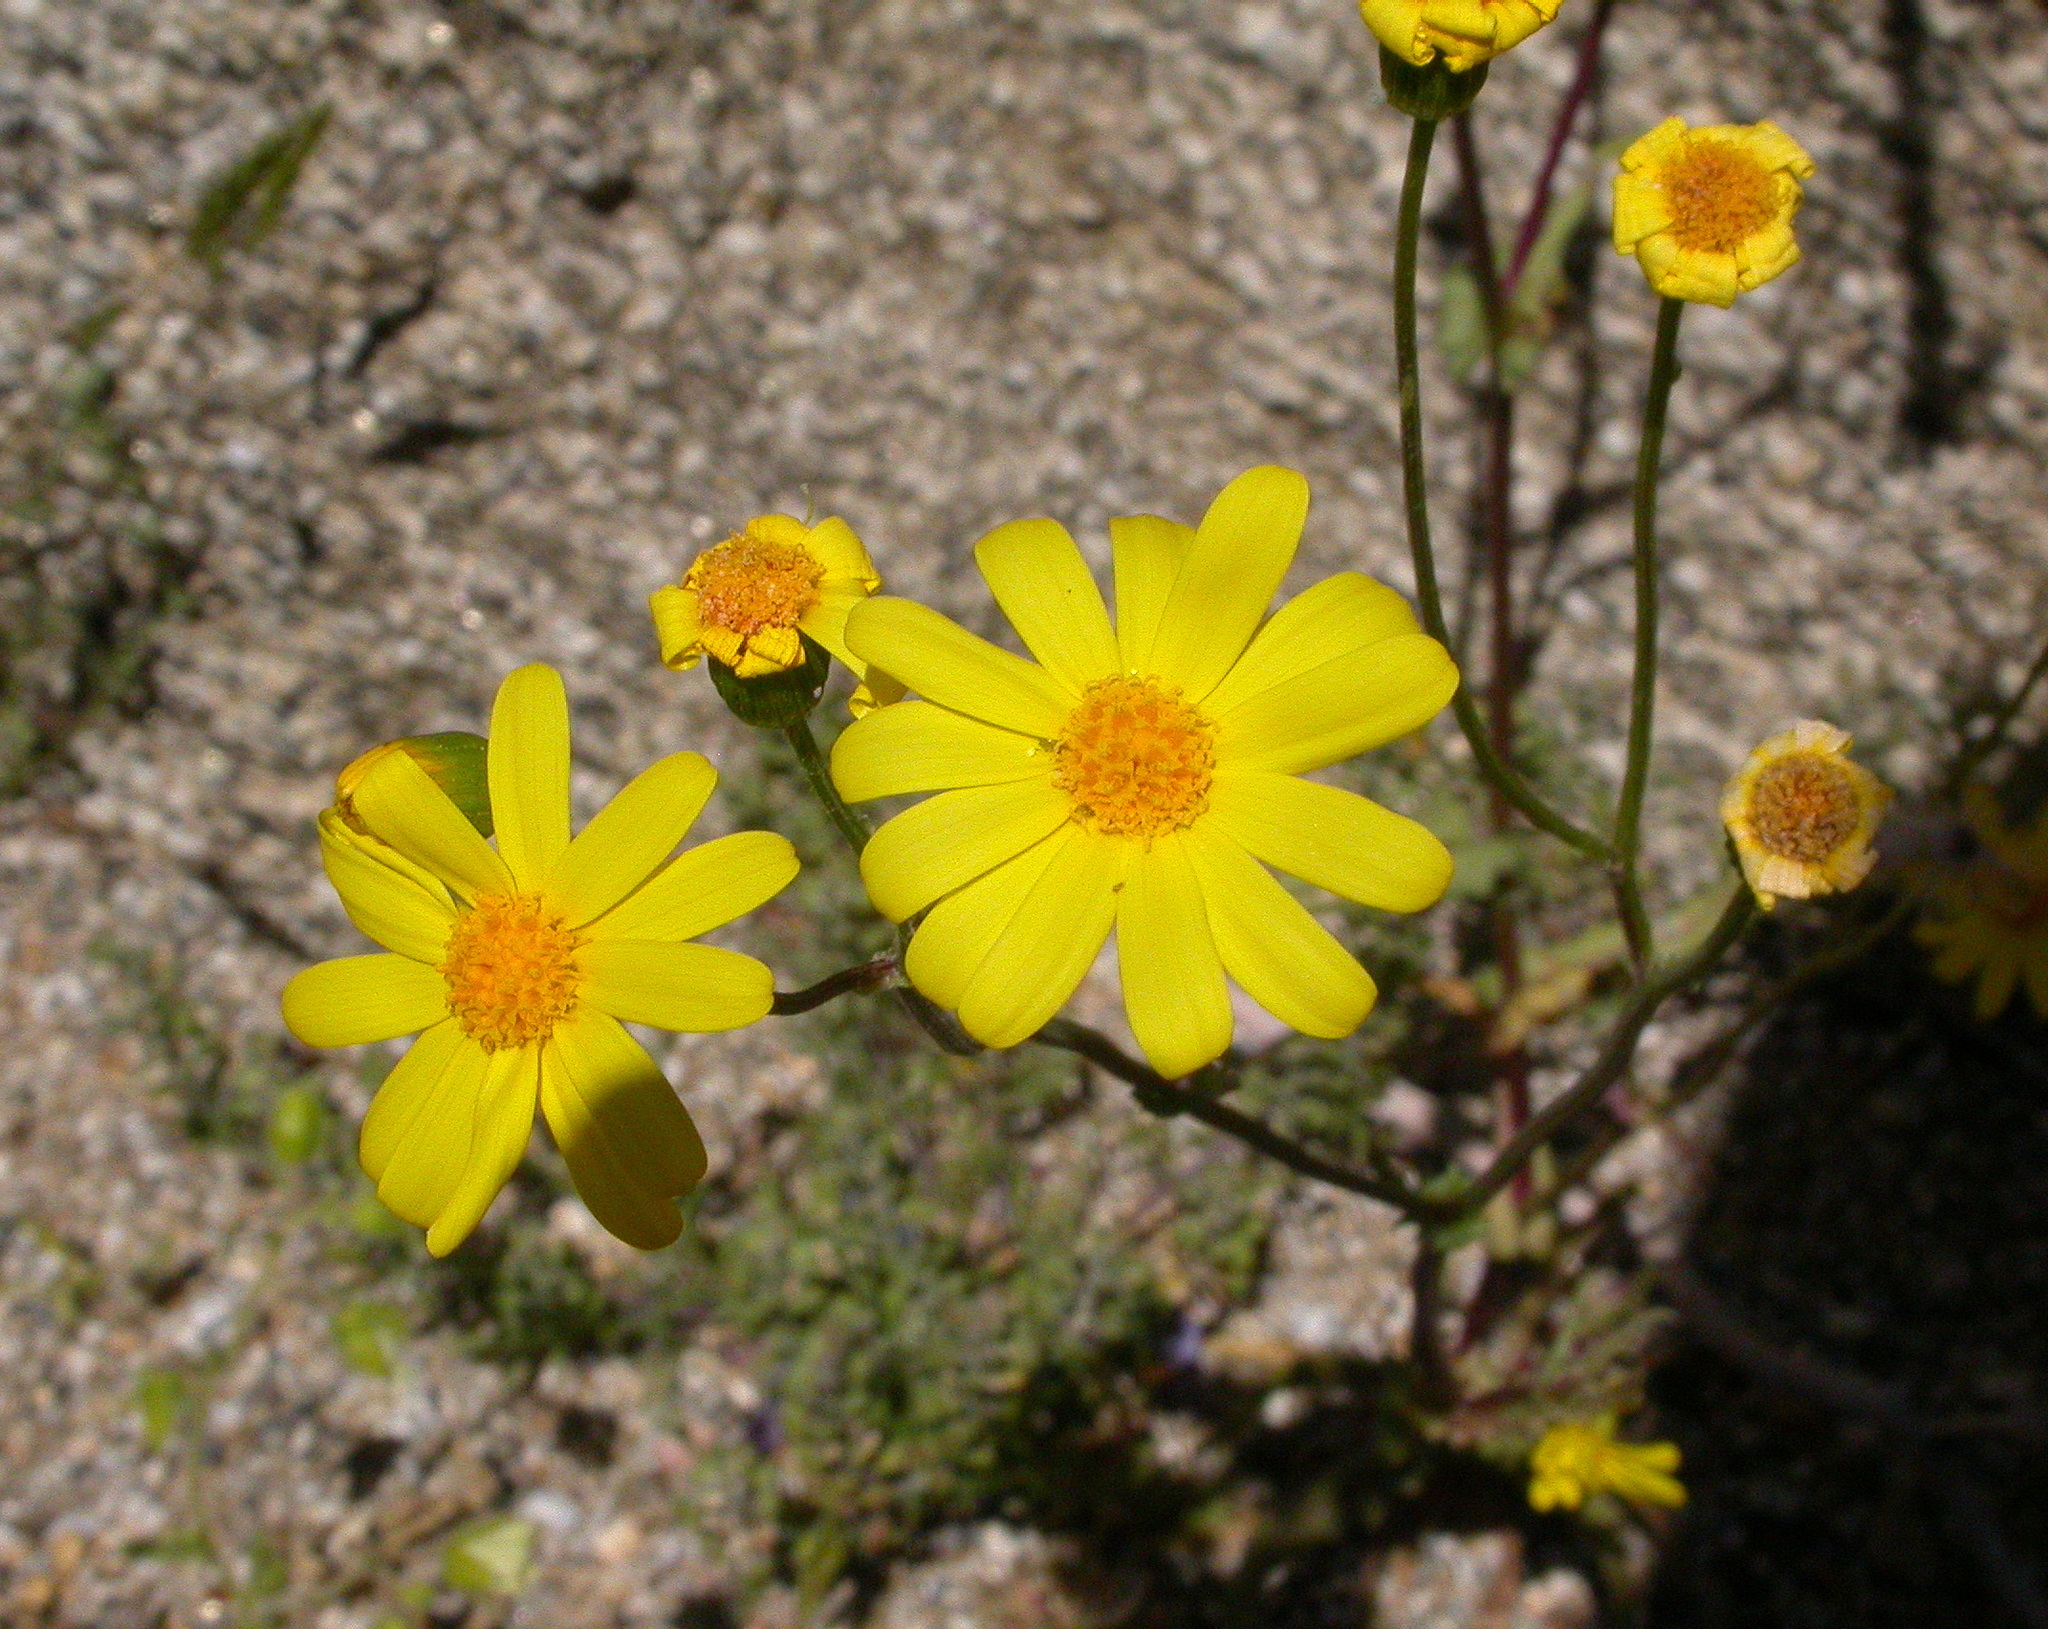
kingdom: Plantae
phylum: Tracheophyta
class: Magnoliopsida
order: Asterales
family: Asteraceae
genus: Senecio
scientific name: Senecio californicus
